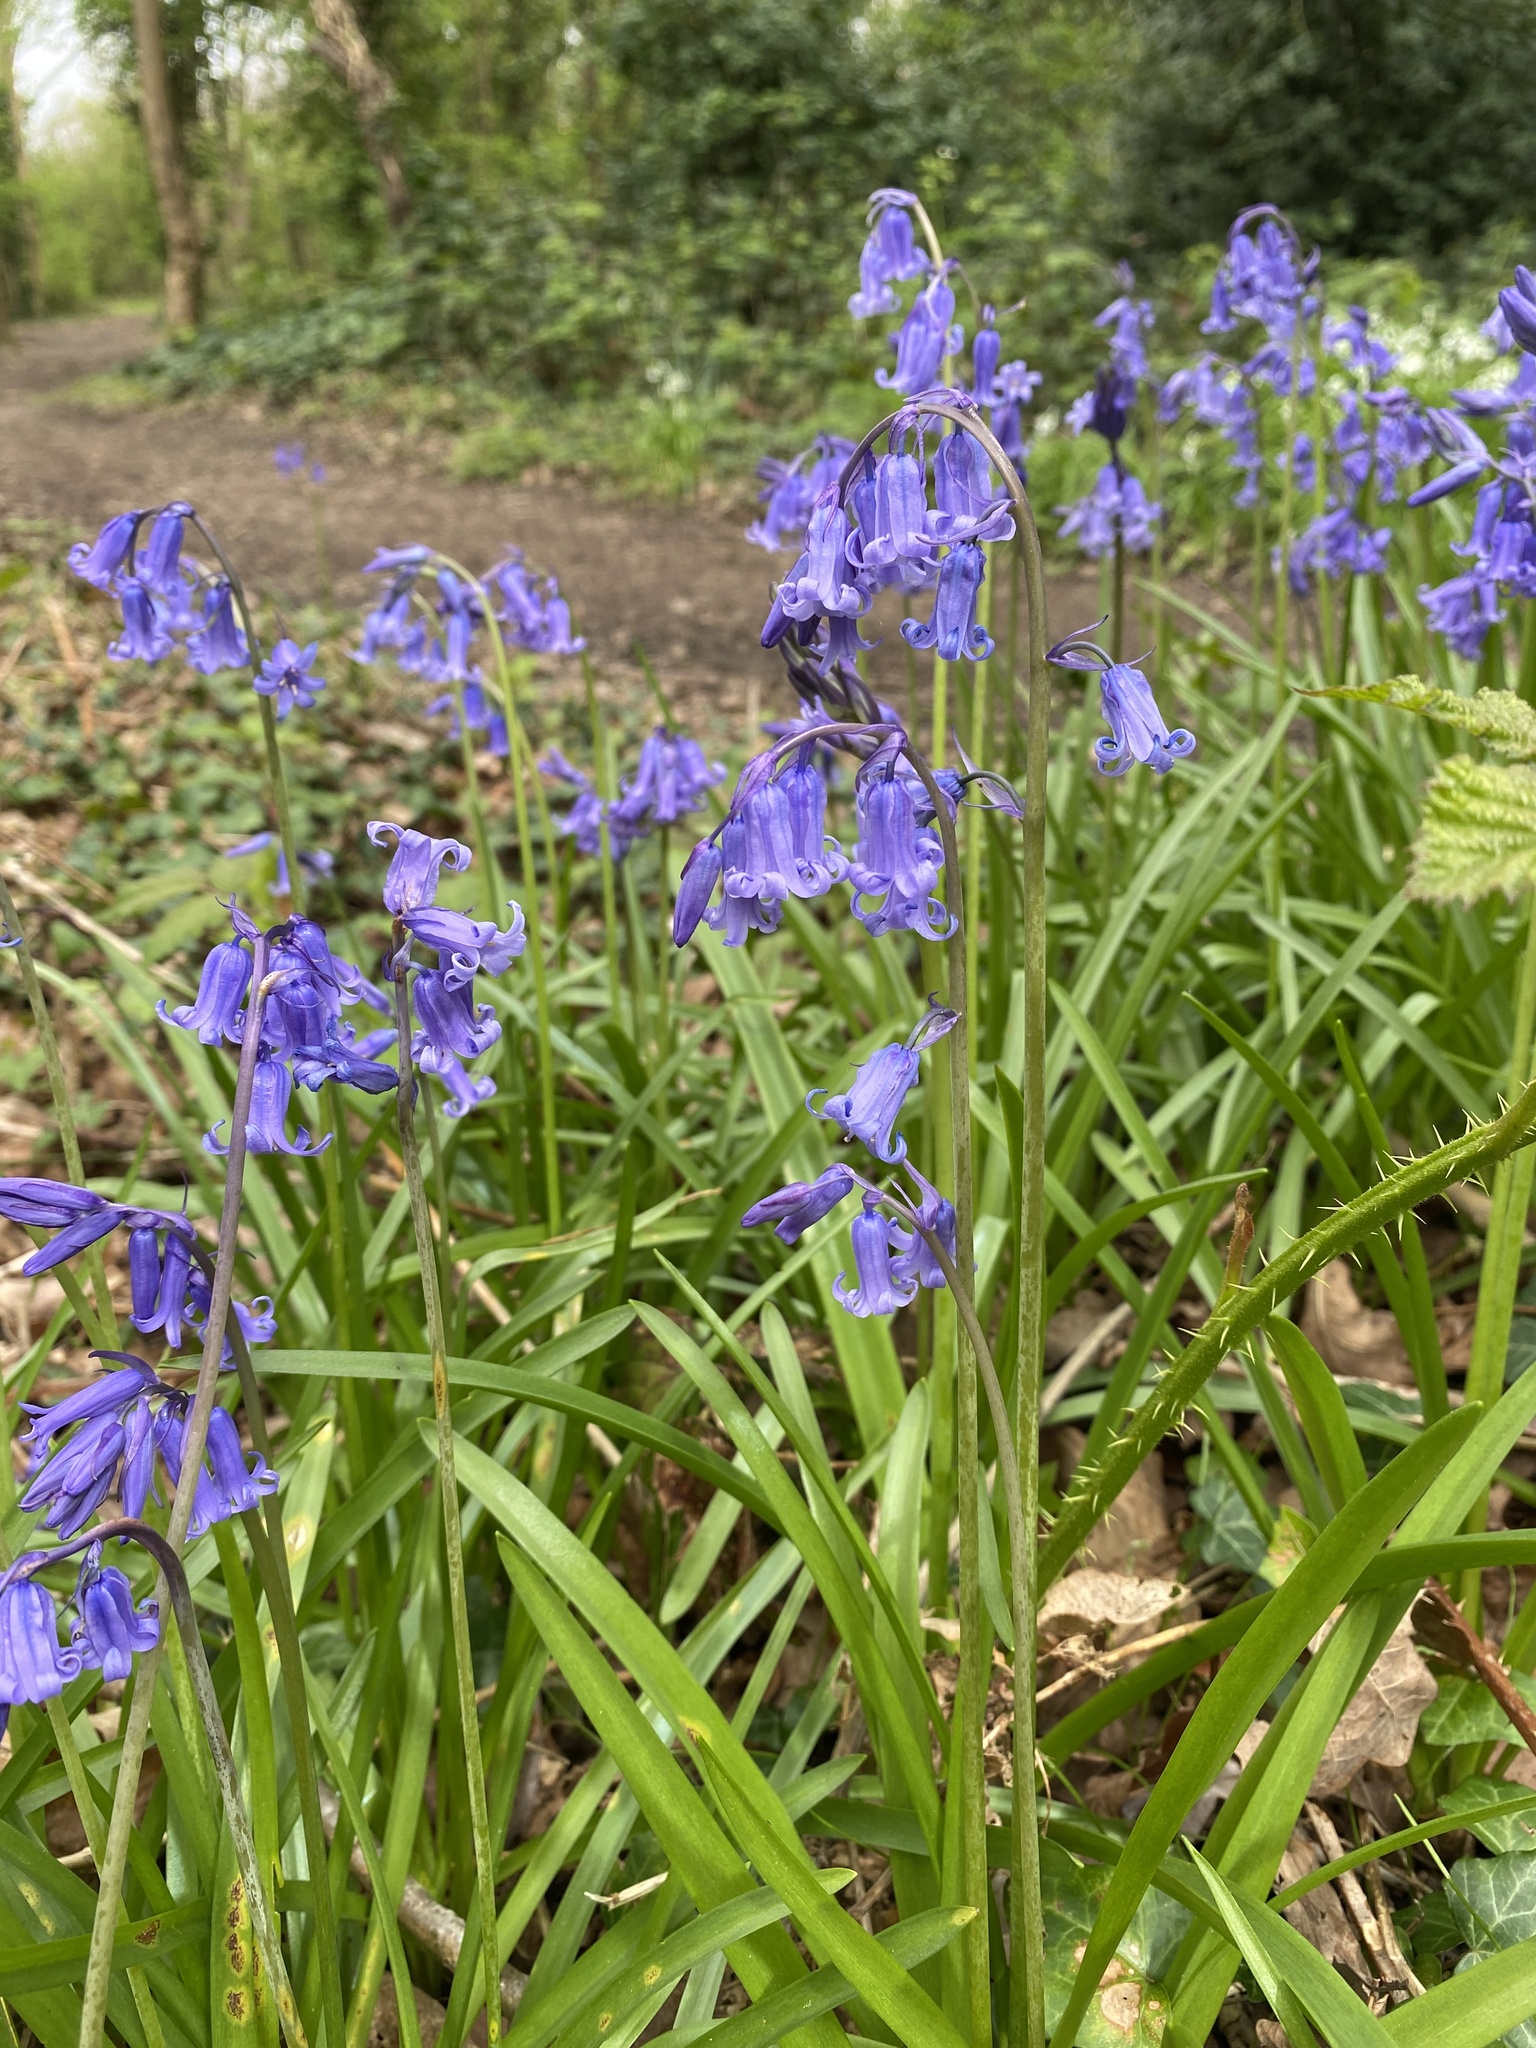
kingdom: Plantae
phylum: Tracheophyta
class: Liliopsida
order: Asparagales
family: Asparagaceae
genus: Hyacinthoides
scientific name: Hyacinthoides non-scripta
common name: Bluebell
